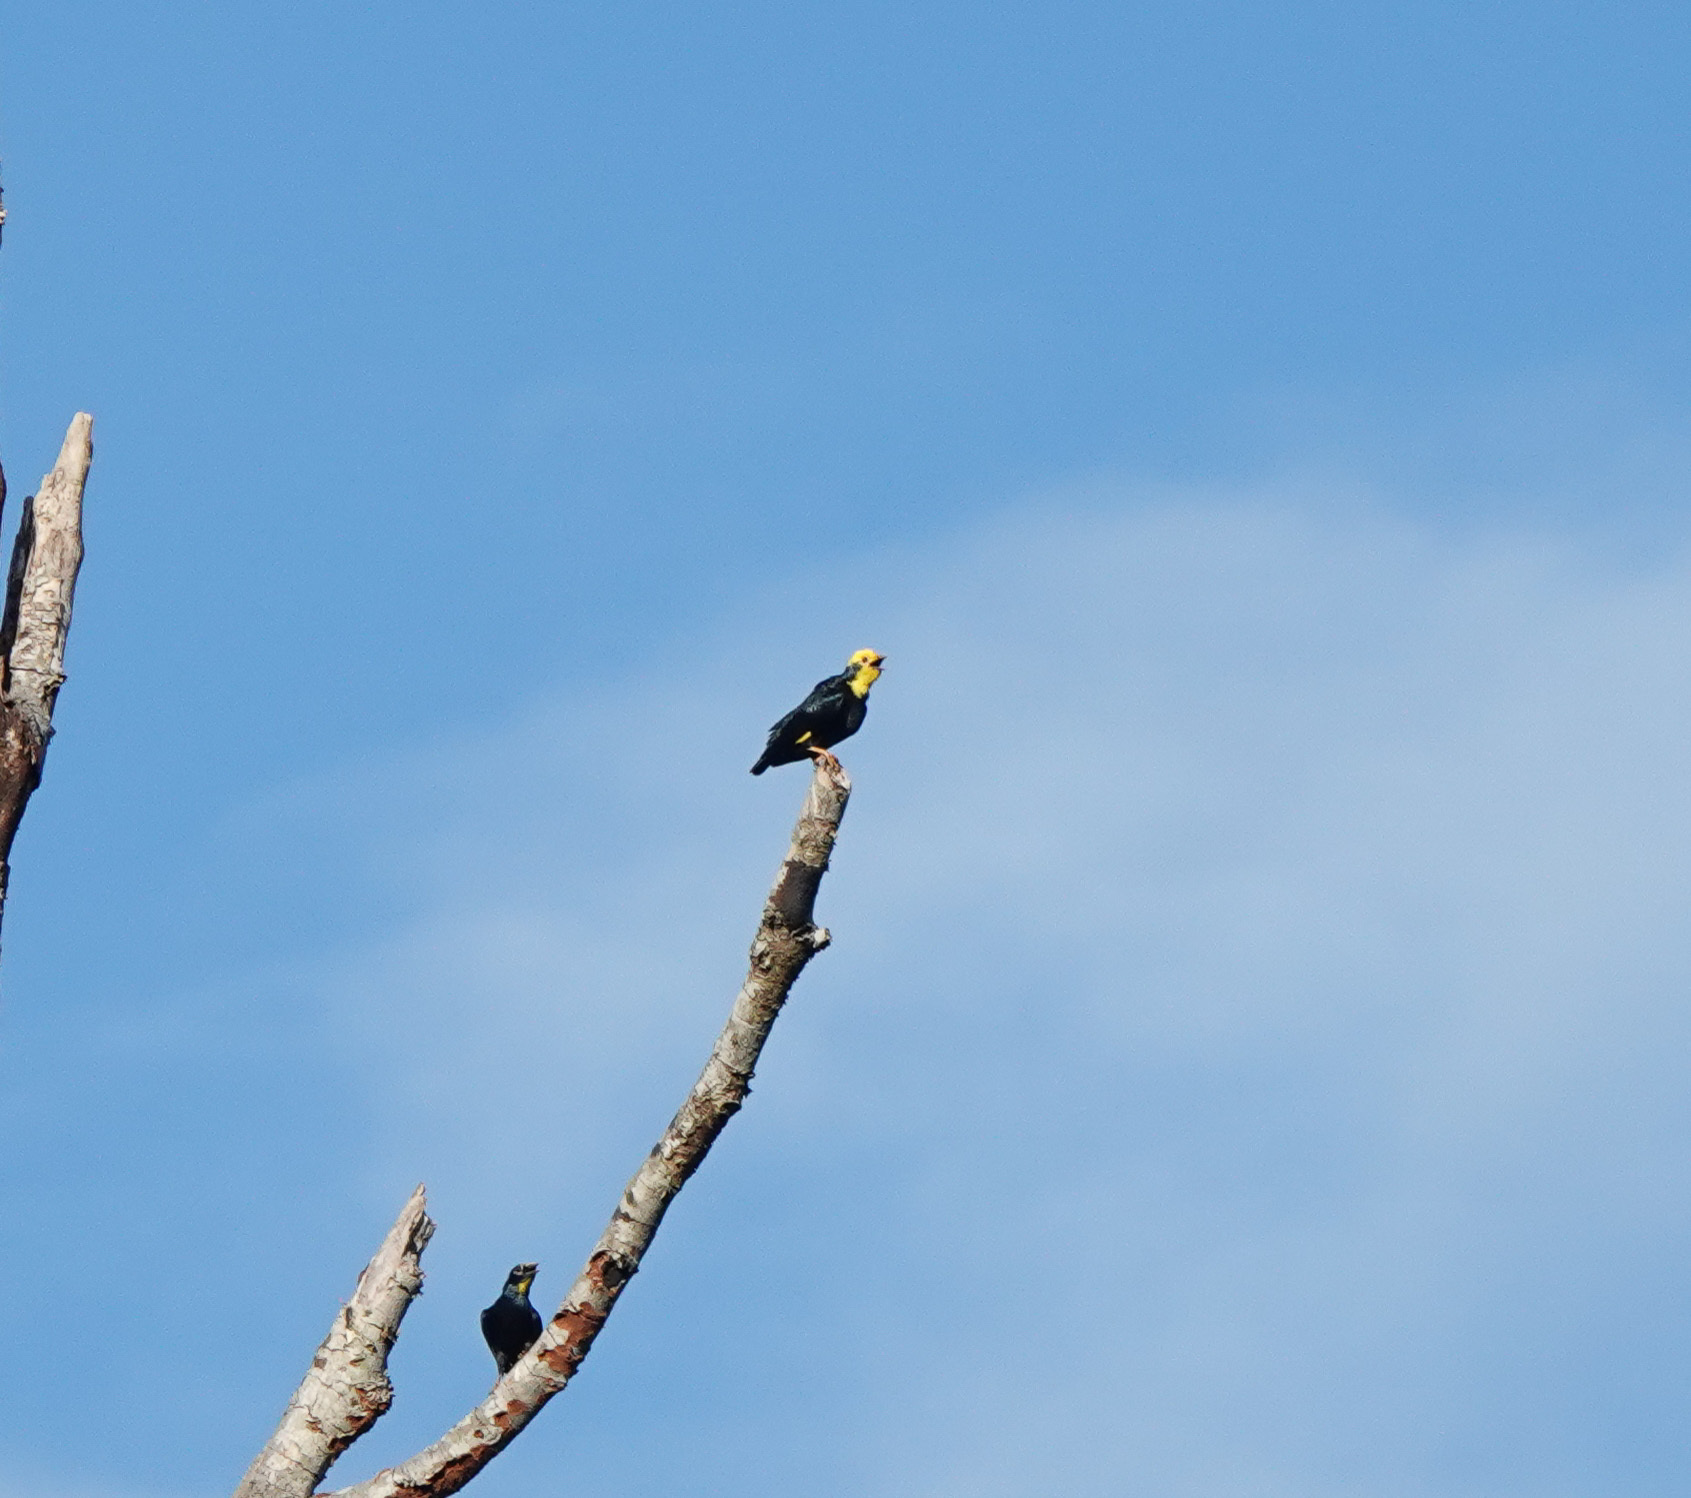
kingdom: Animalia
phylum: Chordata
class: Aves
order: Passeriformes
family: Sturnidae
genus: Ampeliceps
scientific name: Ampeliceps coronatus
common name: Golden-crested myna
